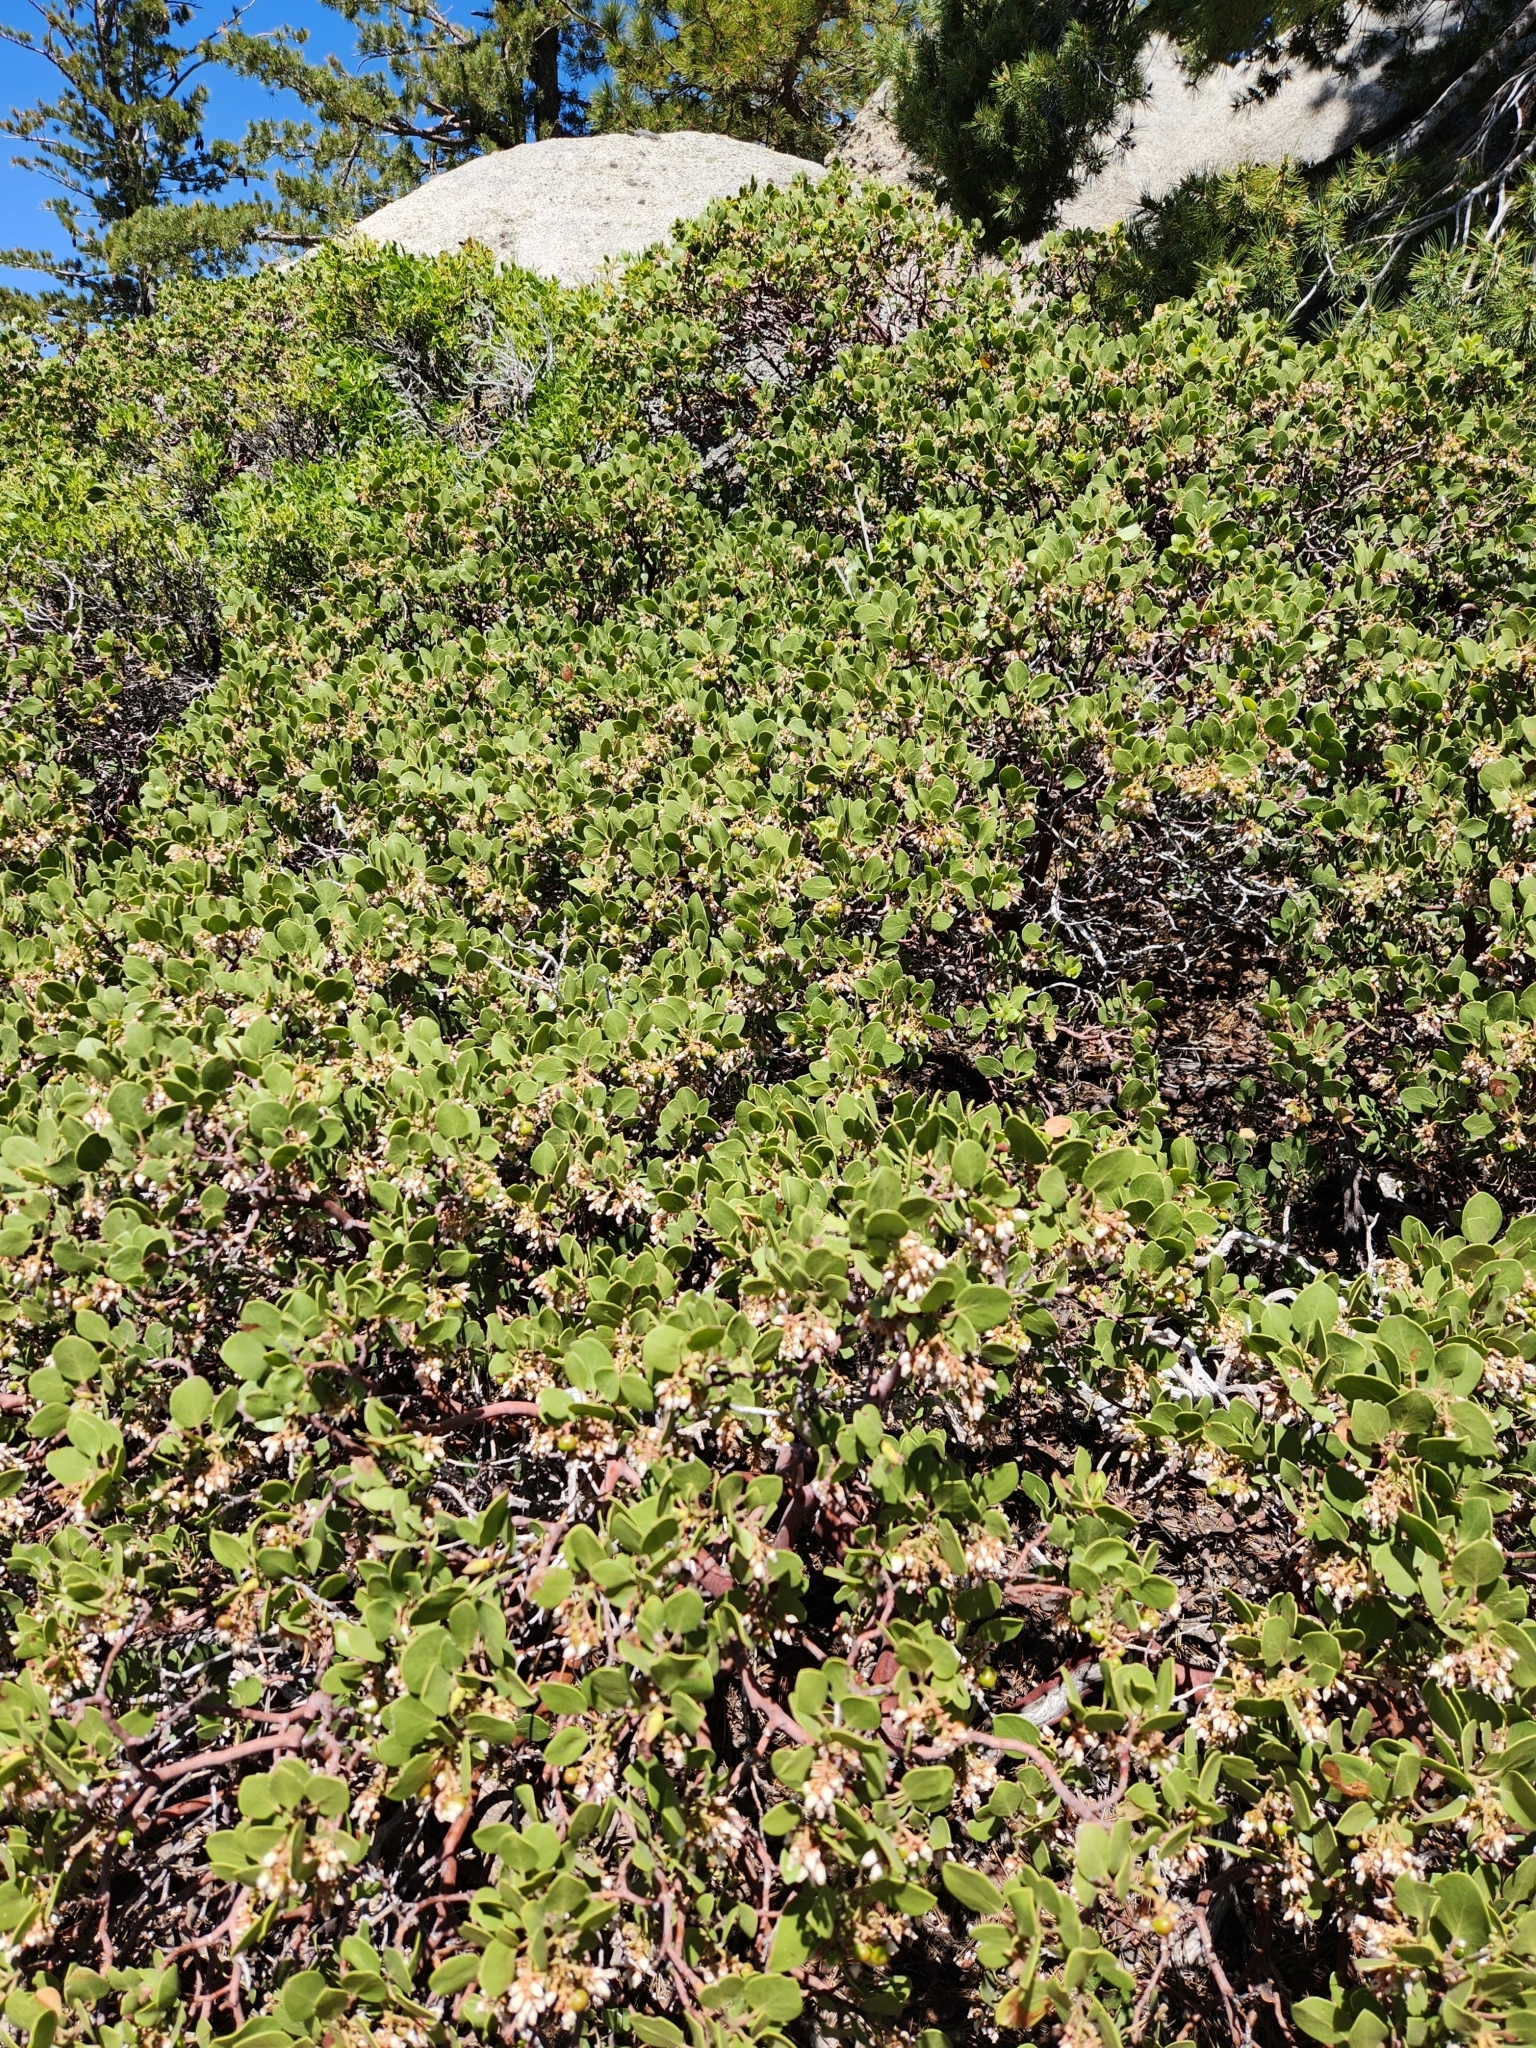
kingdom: Plantae
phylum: Tracheophyta
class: Magnoliopsida
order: Ericales
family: Ericaceae
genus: Arctostaphylos
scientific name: Arctostaphylos patula
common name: Green-leaf manzanita
